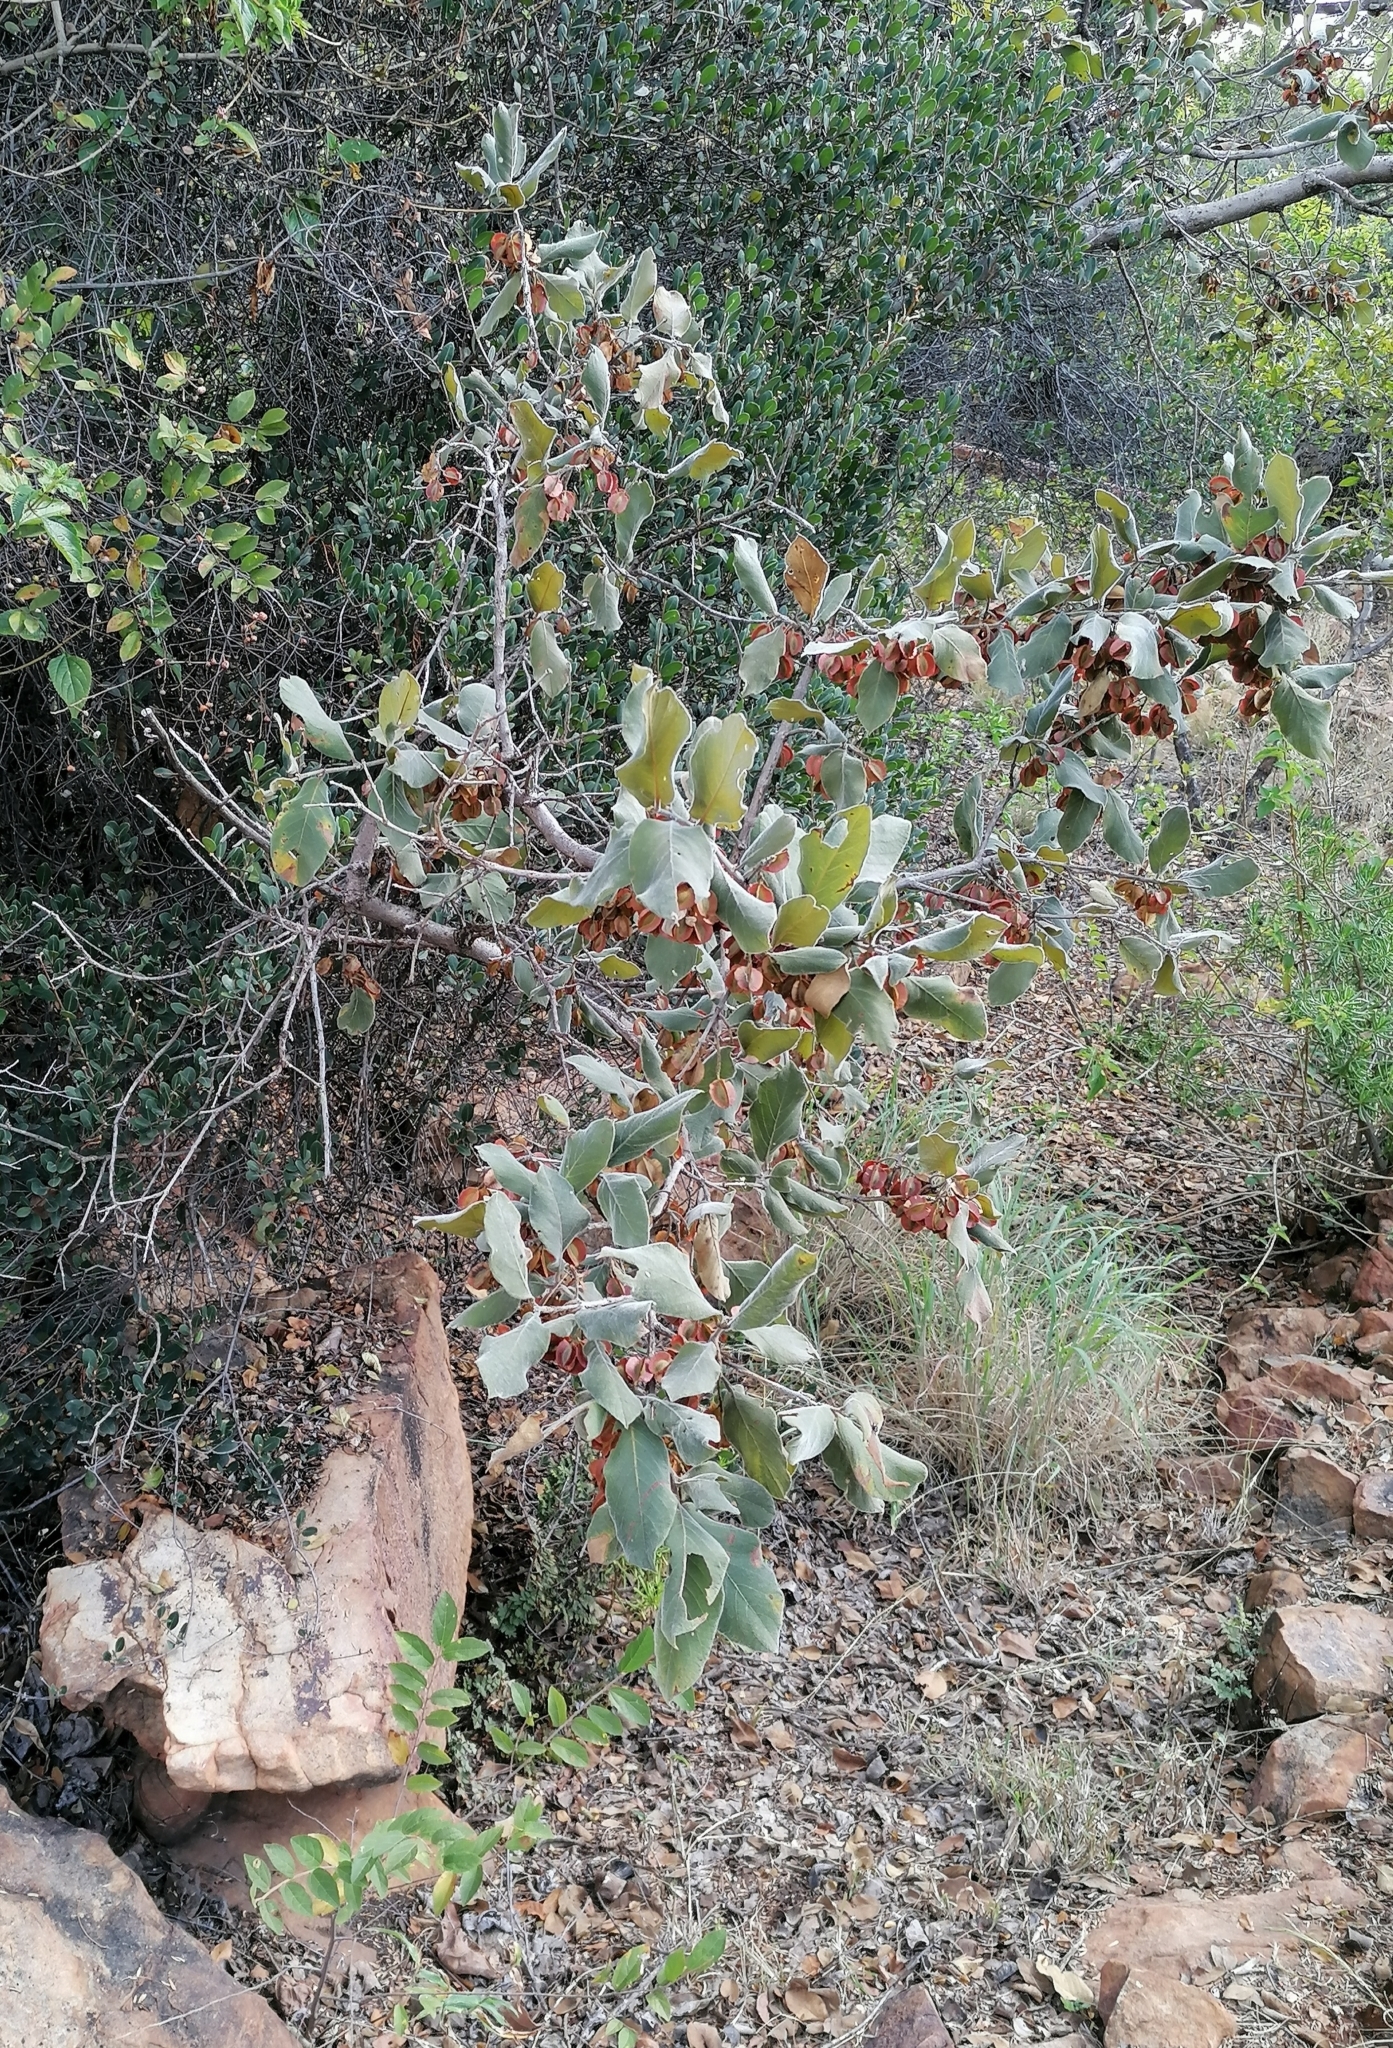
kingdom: Plantae
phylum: Tracheophyta
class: Magnoliopsida
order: Myrtales
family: Combretaceae
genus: Combretum
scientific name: Combretum molle
